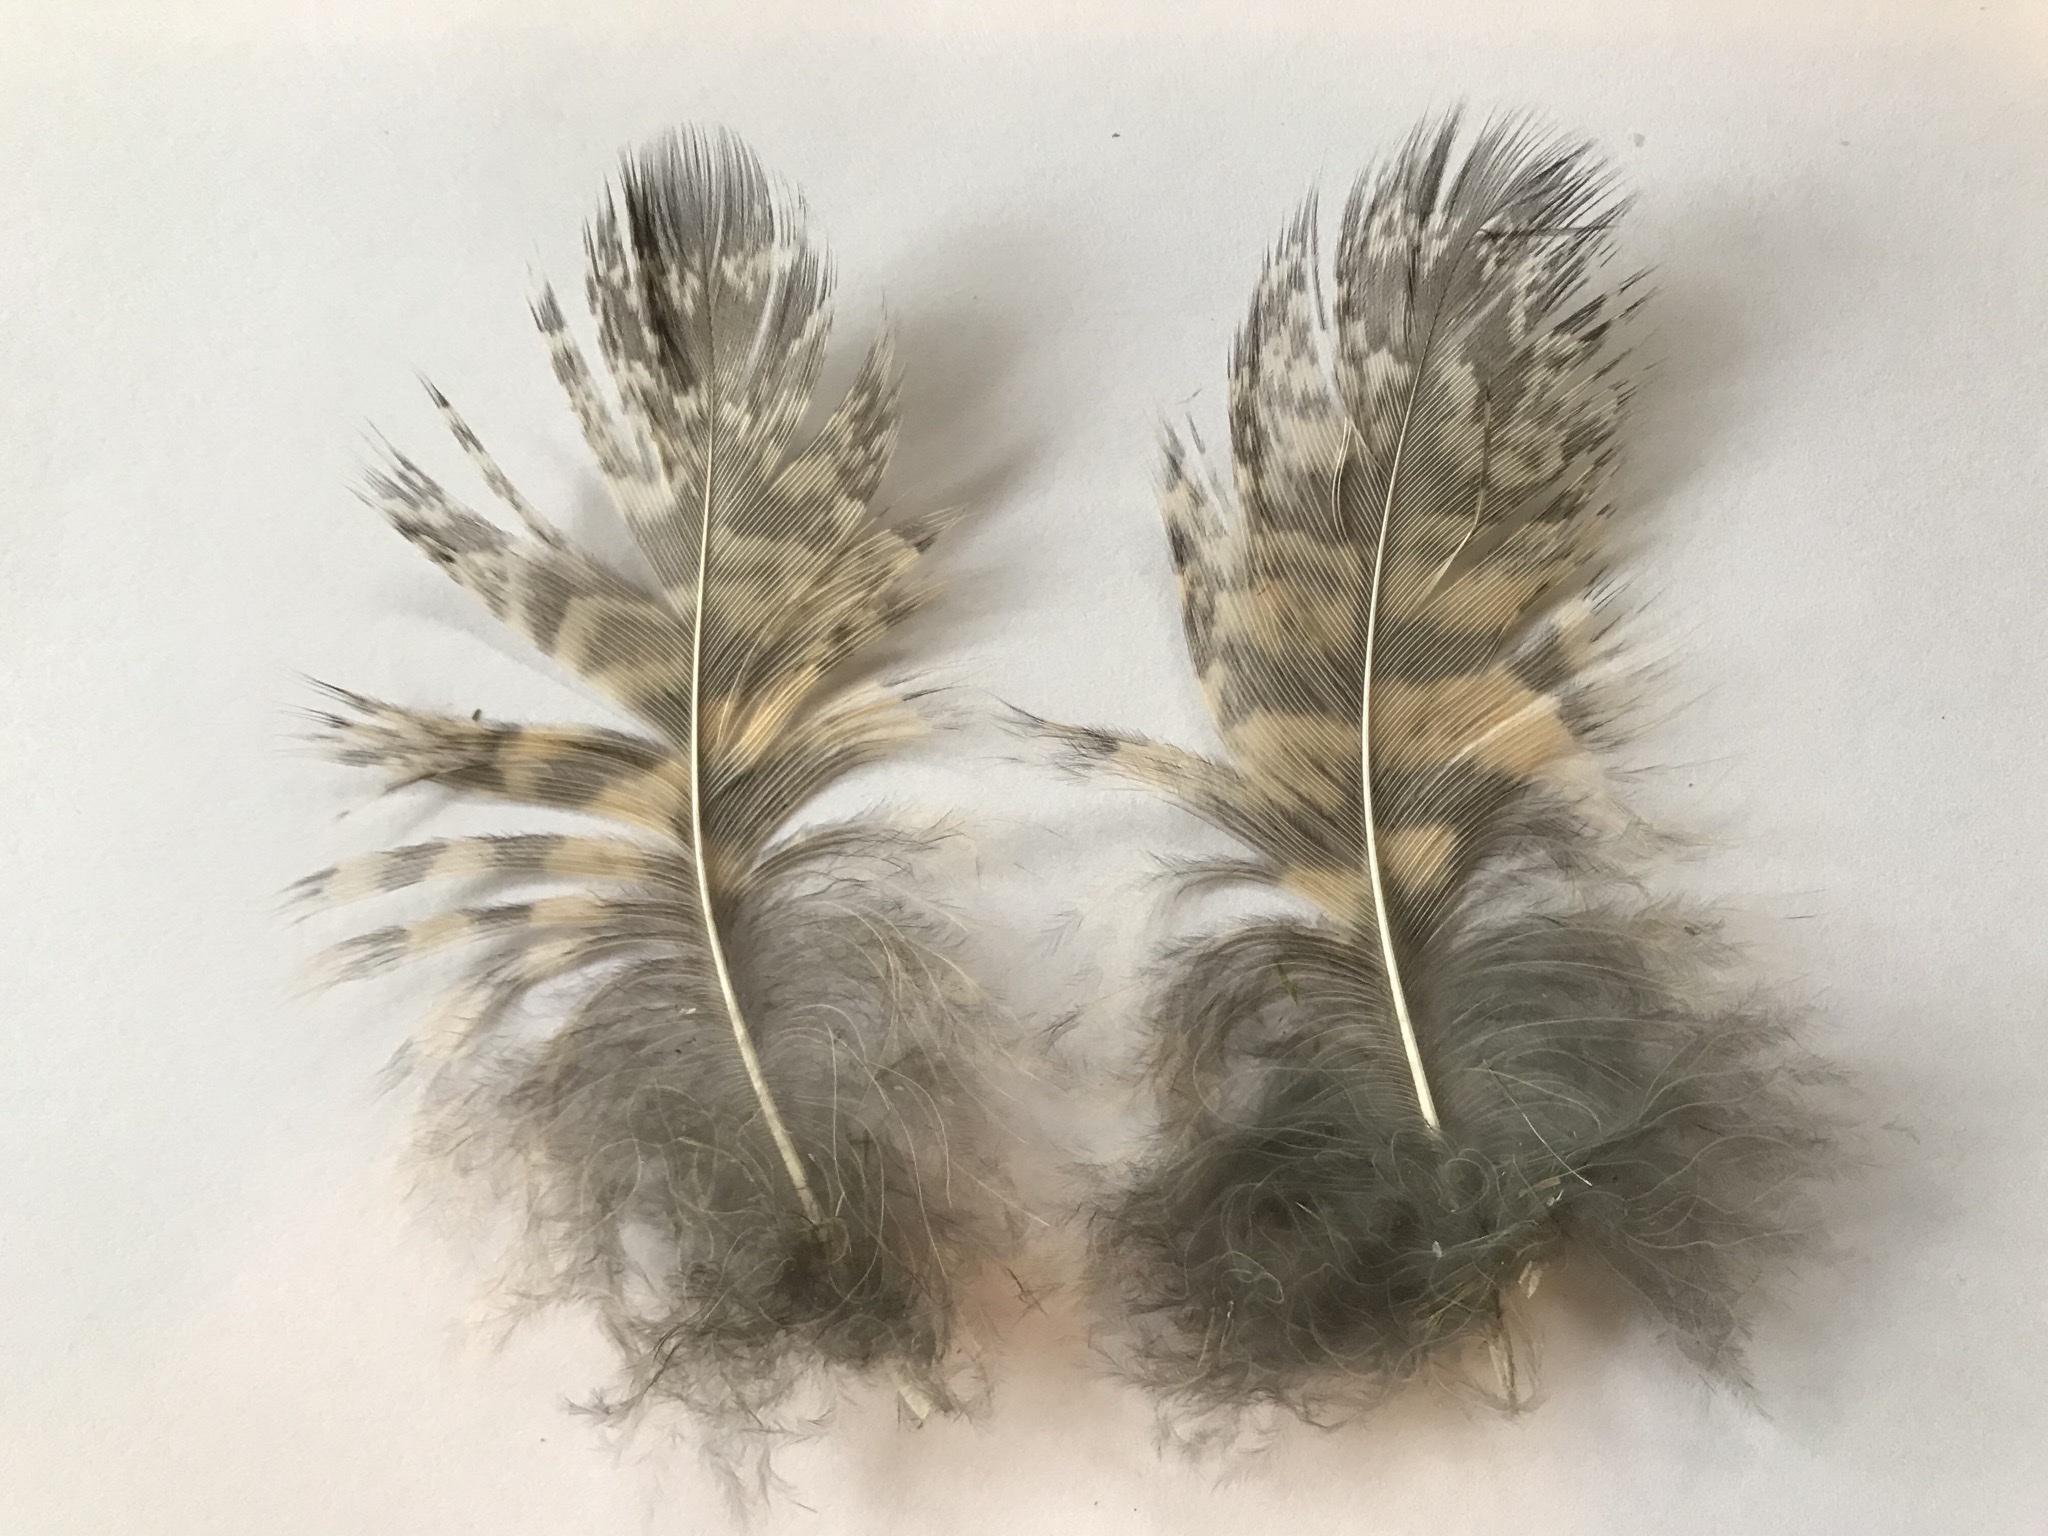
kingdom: Animalia
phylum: Chordata
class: Aves
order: Strigiformes
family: Strigidae
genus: Bubo
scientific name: Bubo virginianus
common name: Great horned owl
